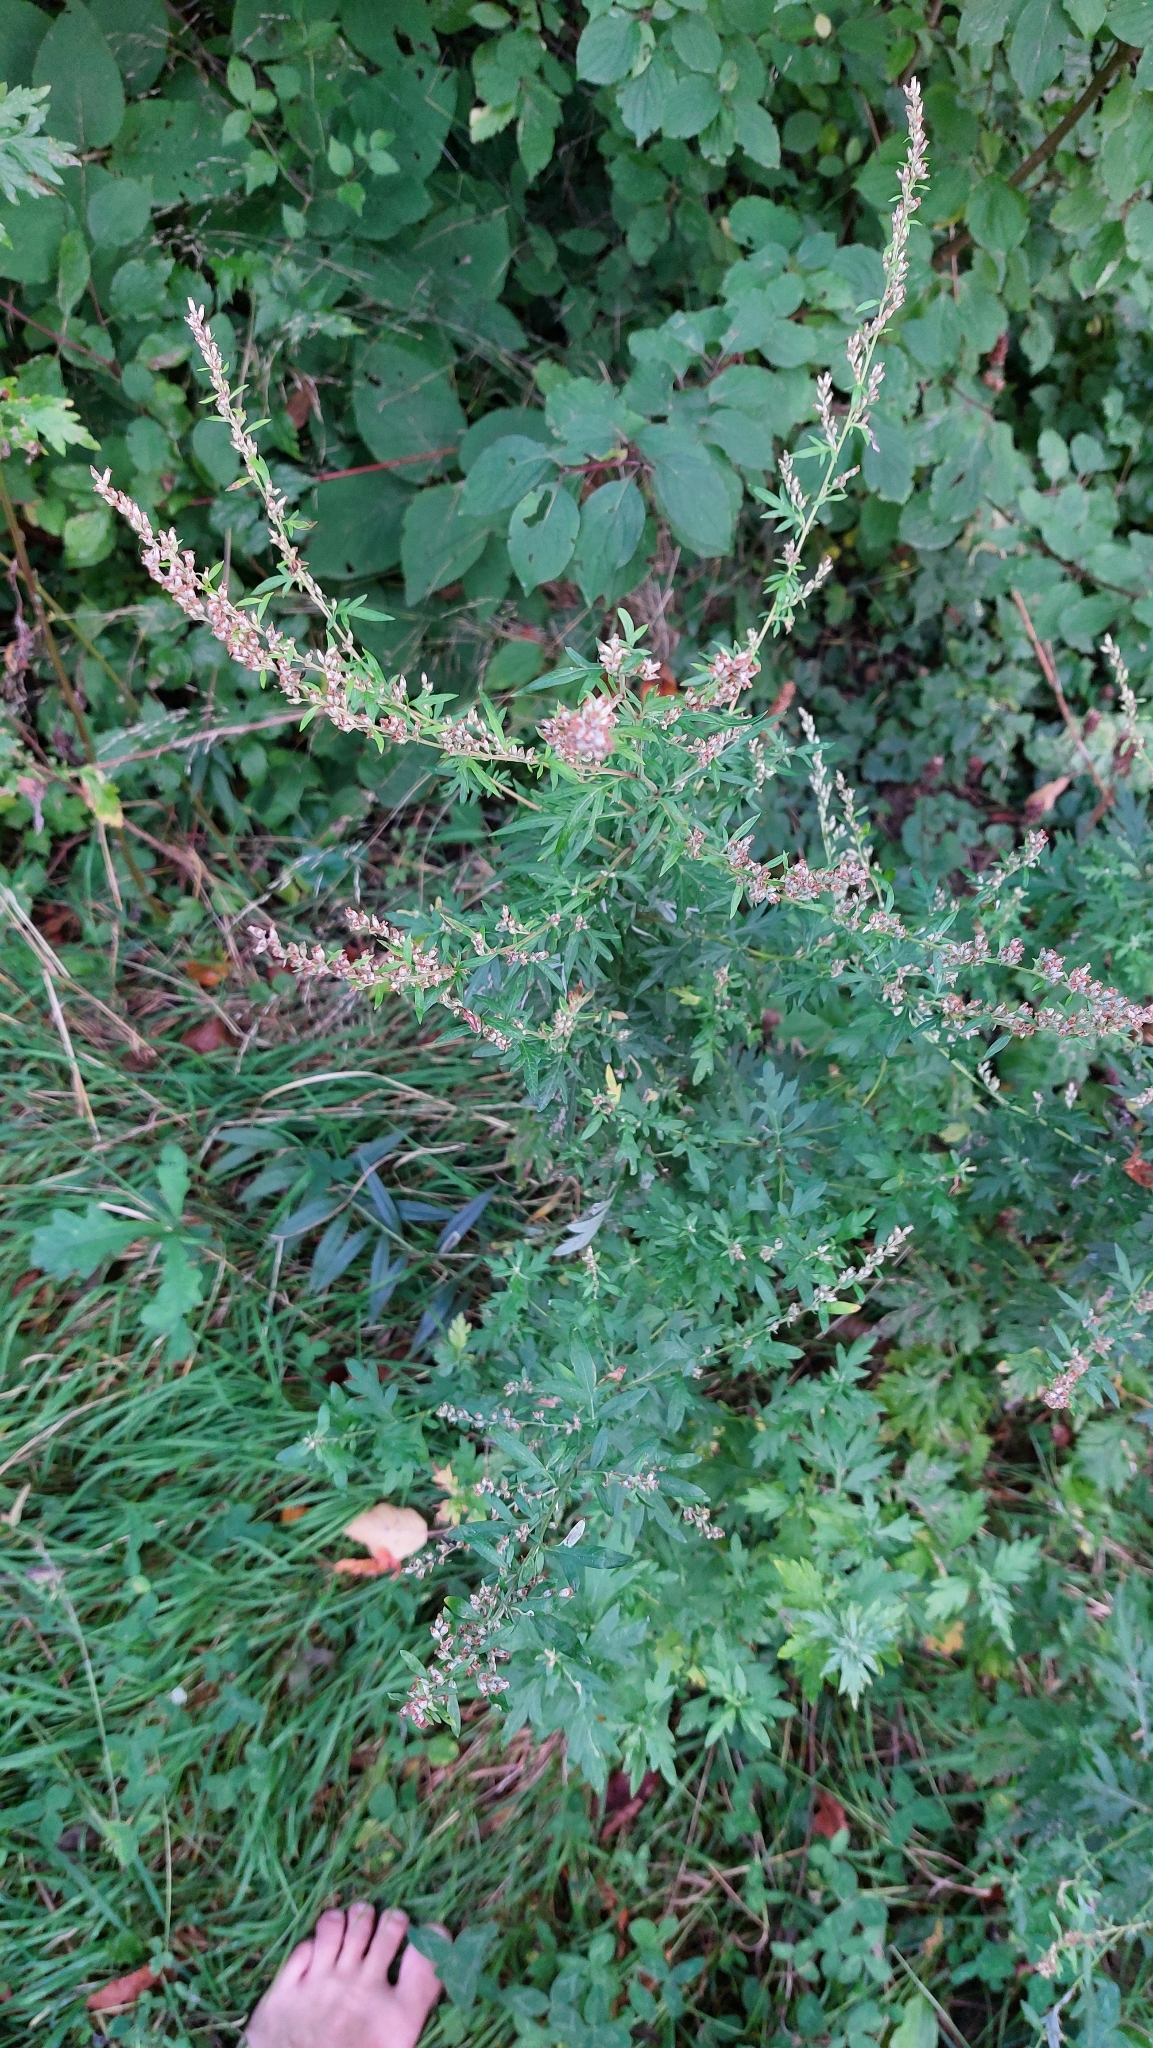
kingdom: Plantae
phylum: Tracheophyta
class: Magnoliopsida
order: Asterales
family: Asteraceae
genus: Artemisia
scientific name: Artemisia vulgaris
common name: Mugwort
